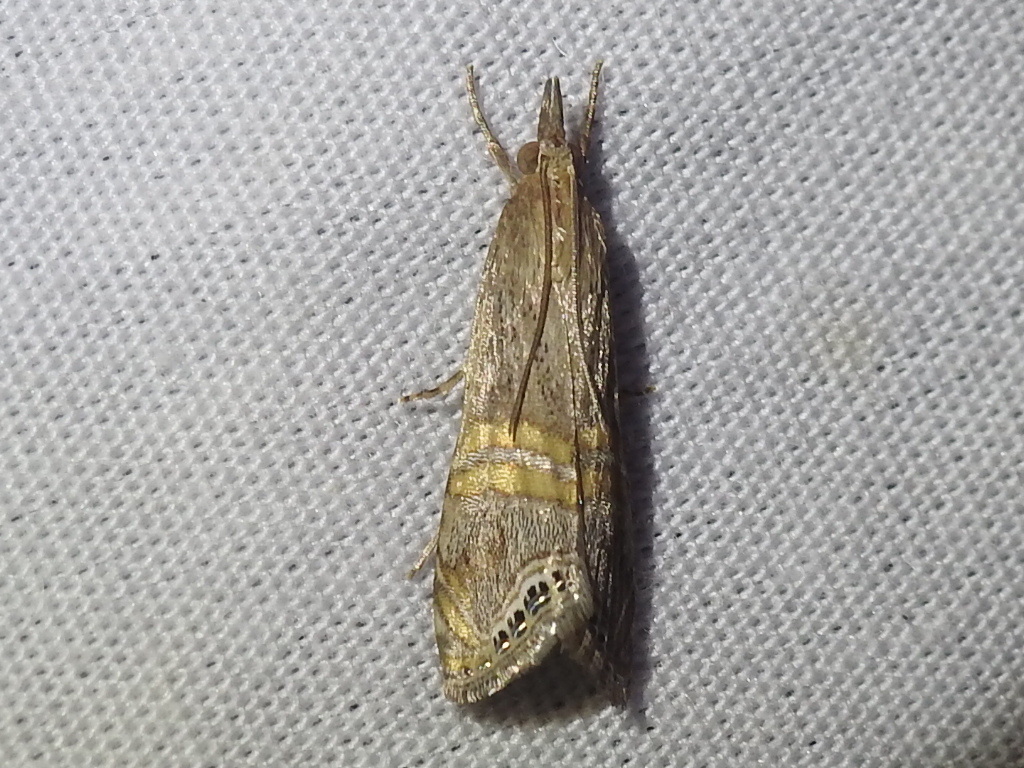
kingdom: Animalia
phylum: Arthropoda
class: Insecta
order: Lepidoptera
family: Crambidae
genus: Euchromius
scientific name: Euchromius ocellea
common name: Necklace veneer moth
